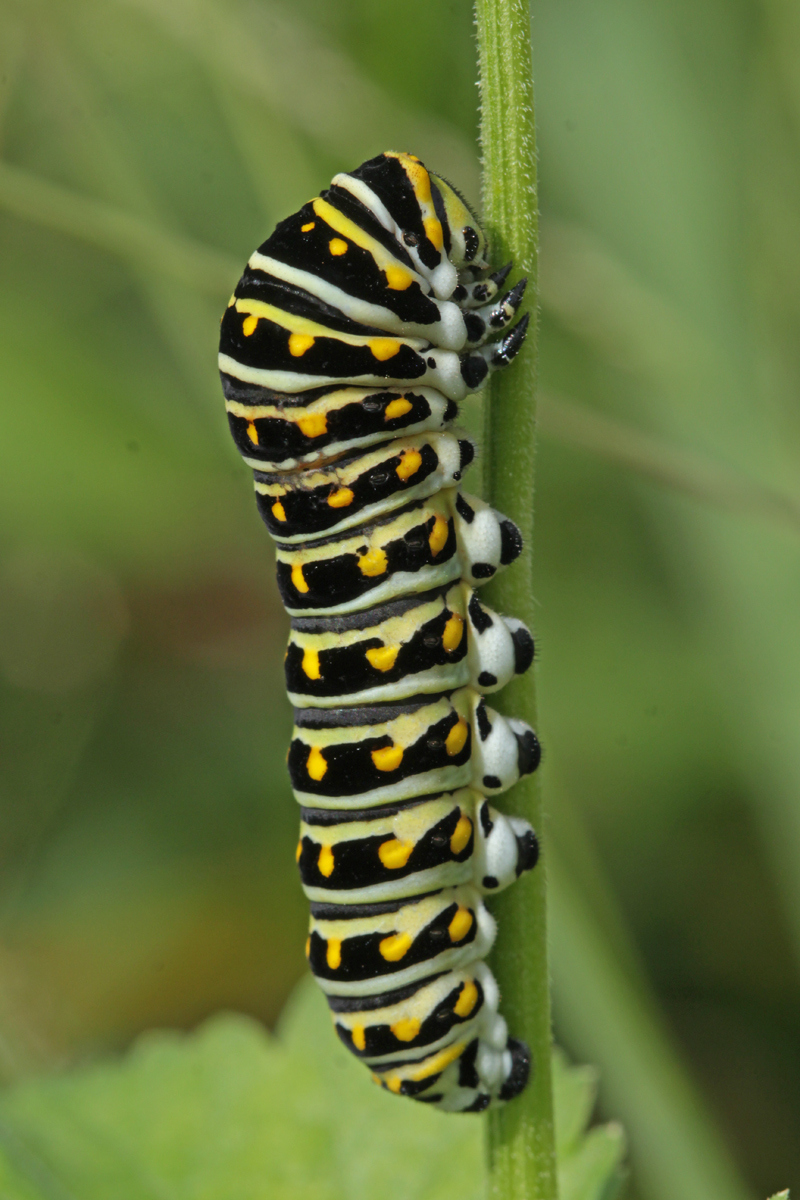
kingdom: Animalia
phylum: Arthropoda
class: Insecta
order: Lepidoptera
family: Papilionidae
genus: Papilio
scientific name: Papilio polyxenes
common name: Black swallowtail
